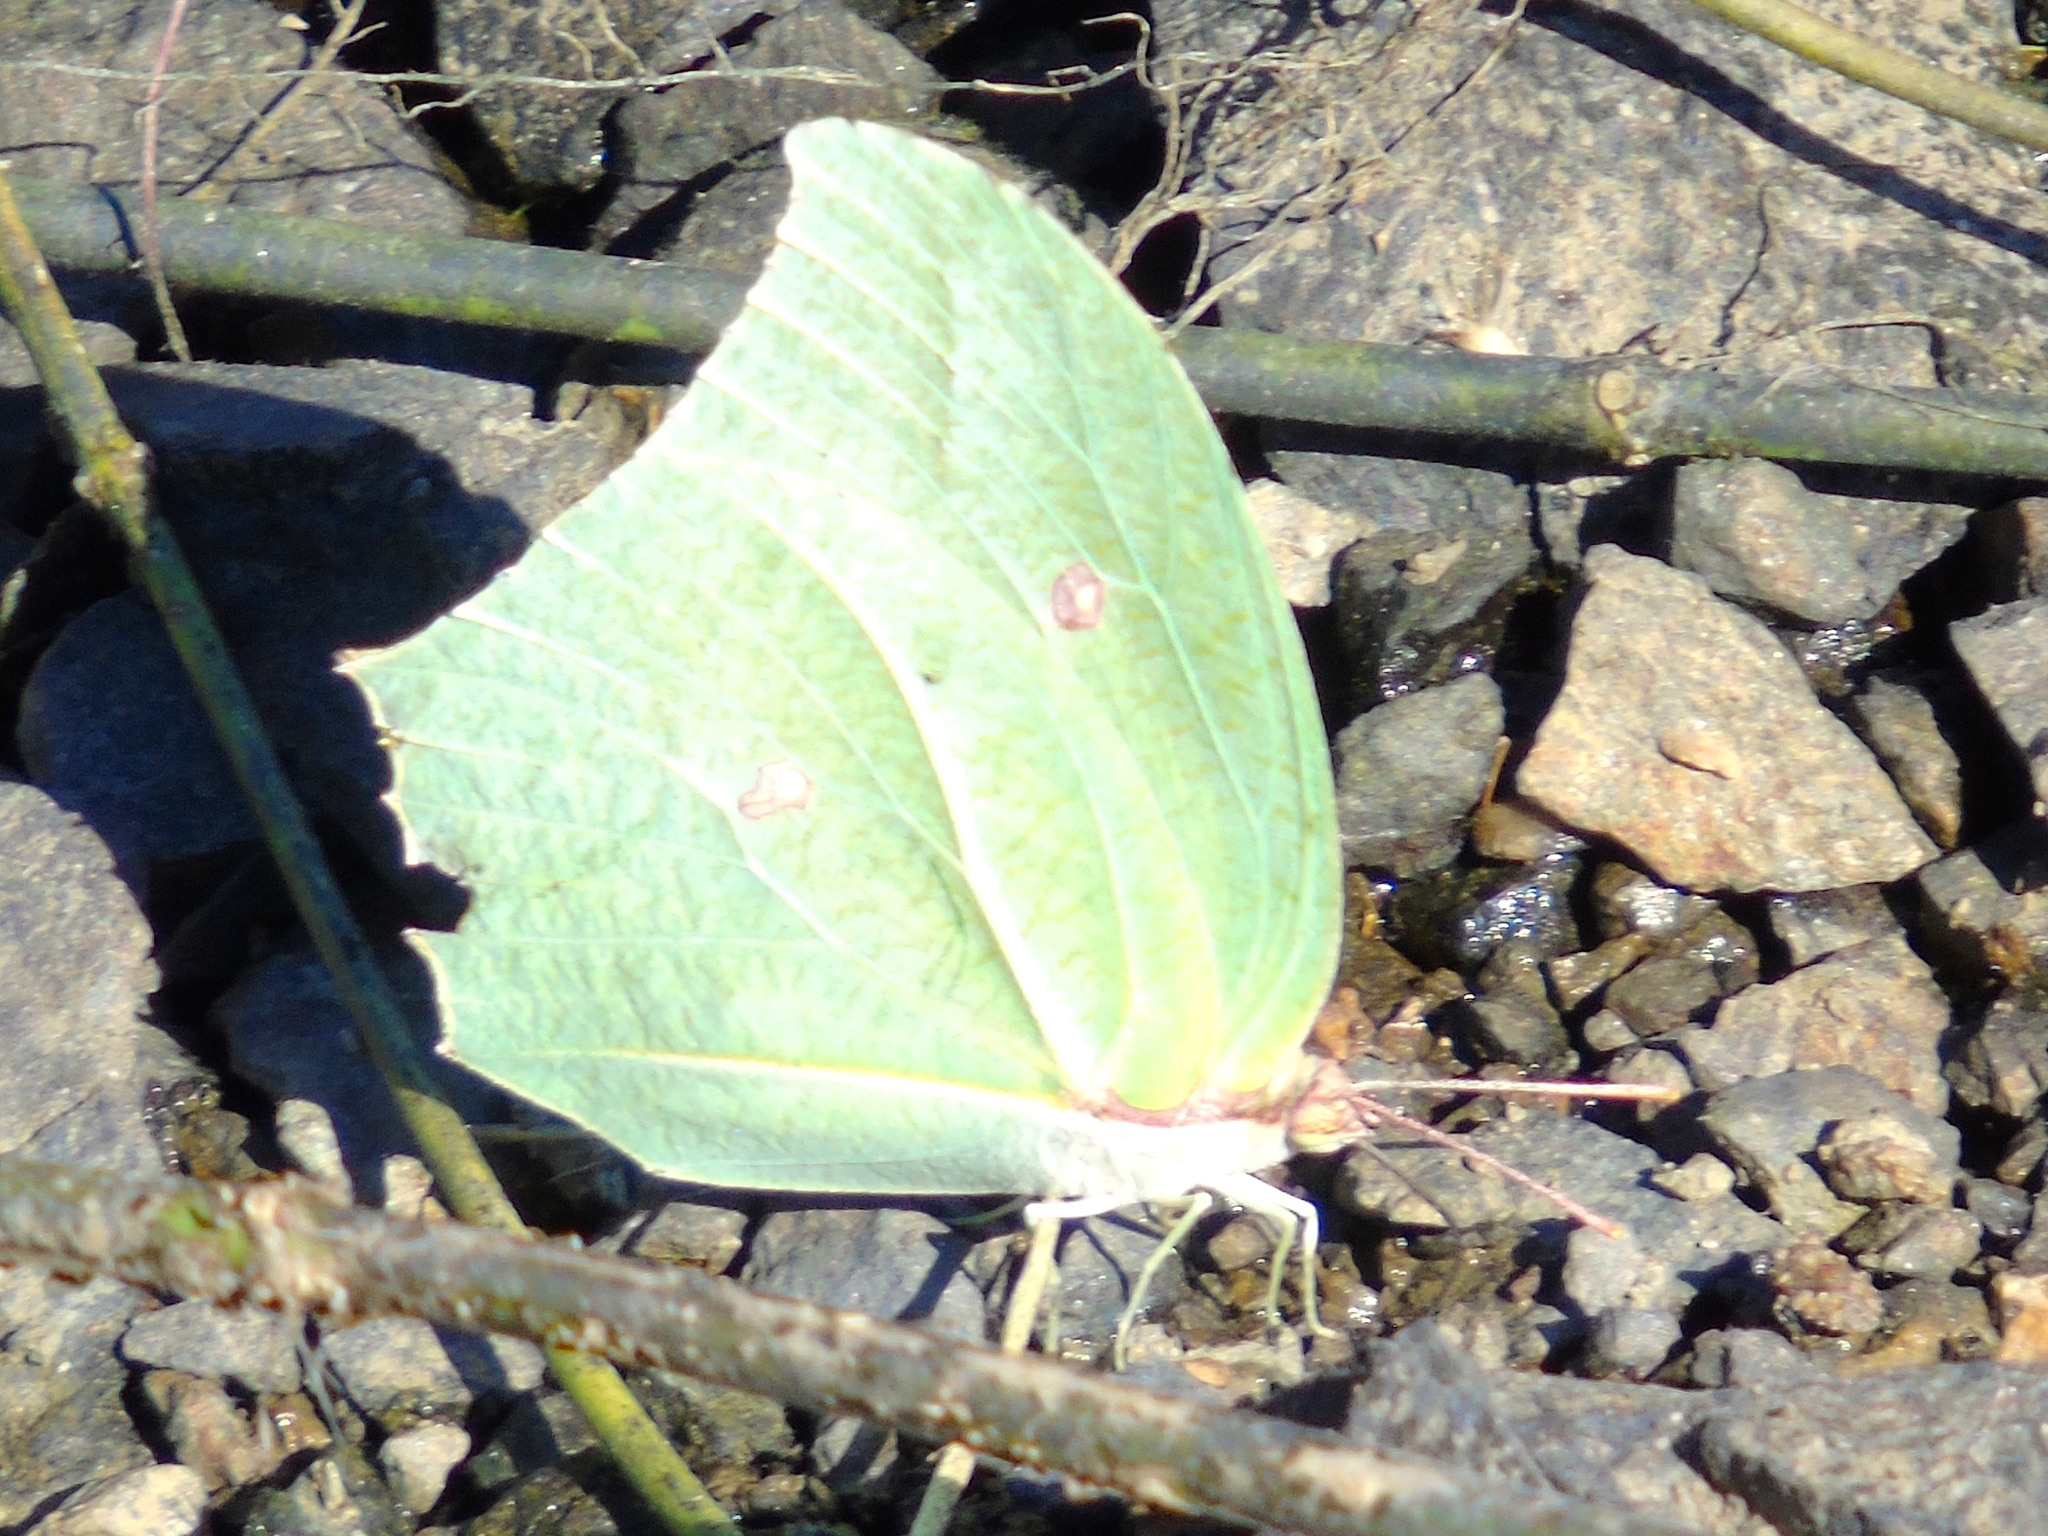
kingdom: Animalia
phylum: Arthropoda
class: Insecta
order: Lepidoptera
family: Pieridae
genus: Anteos
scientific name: Anteos maerula
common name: Angled sulphur
